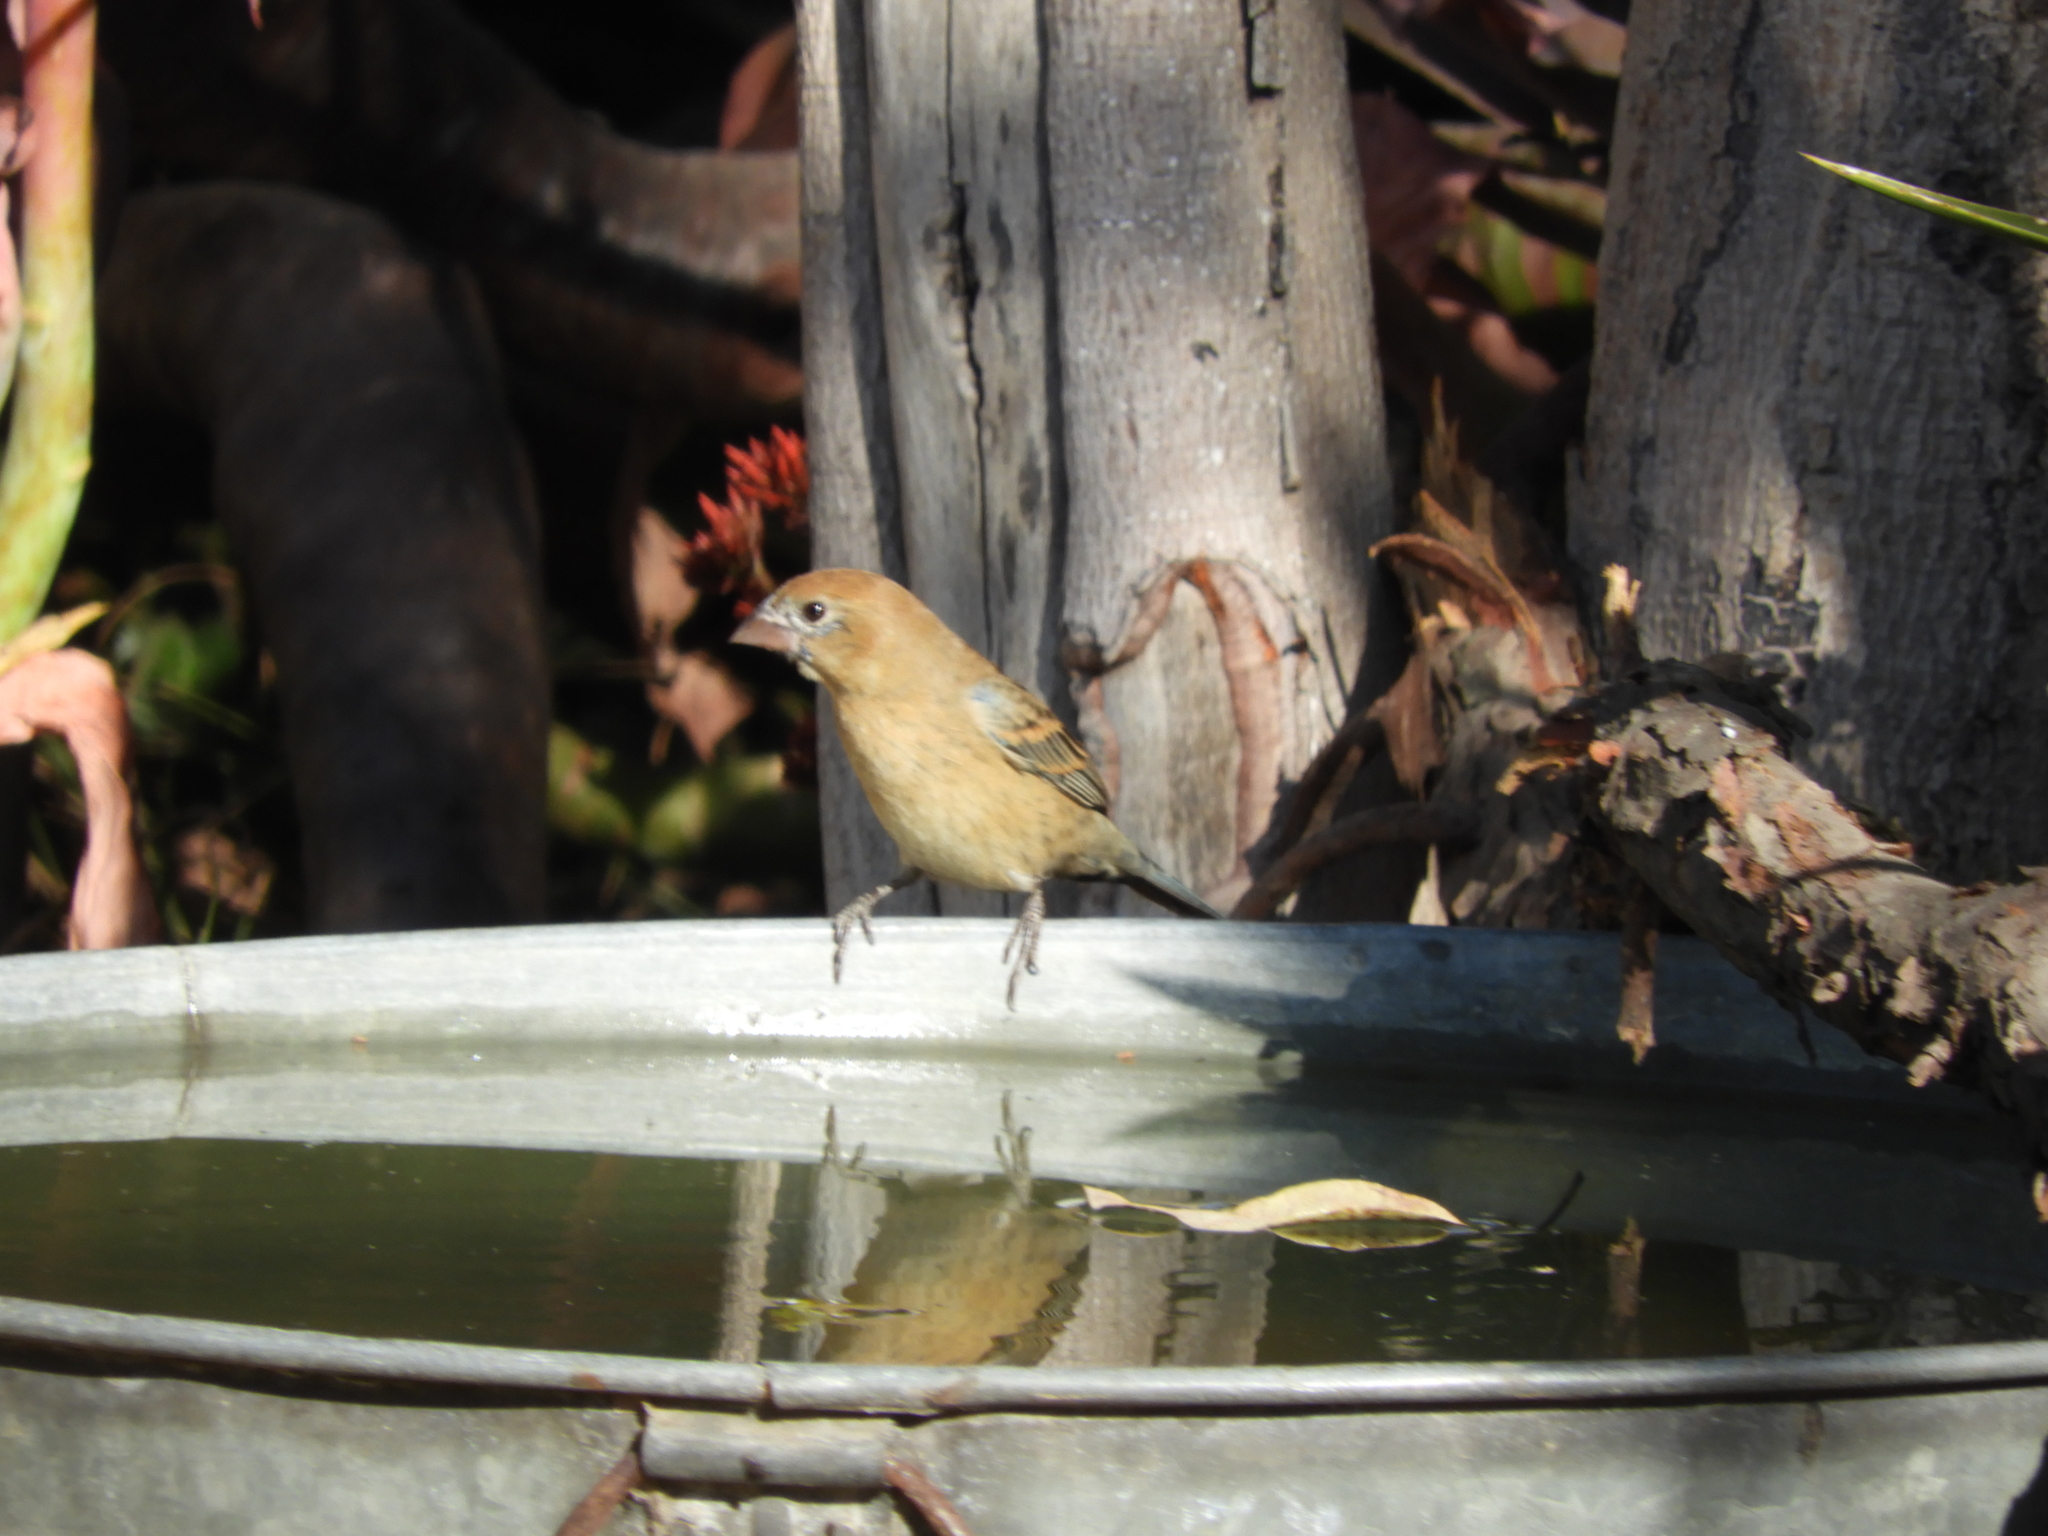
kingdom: Animalia
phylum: Chordata
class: Aves
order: Passeriformes
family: Cardinalidae
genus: Passerina
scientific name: Passerina caerulea
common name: Blue grosbeak
